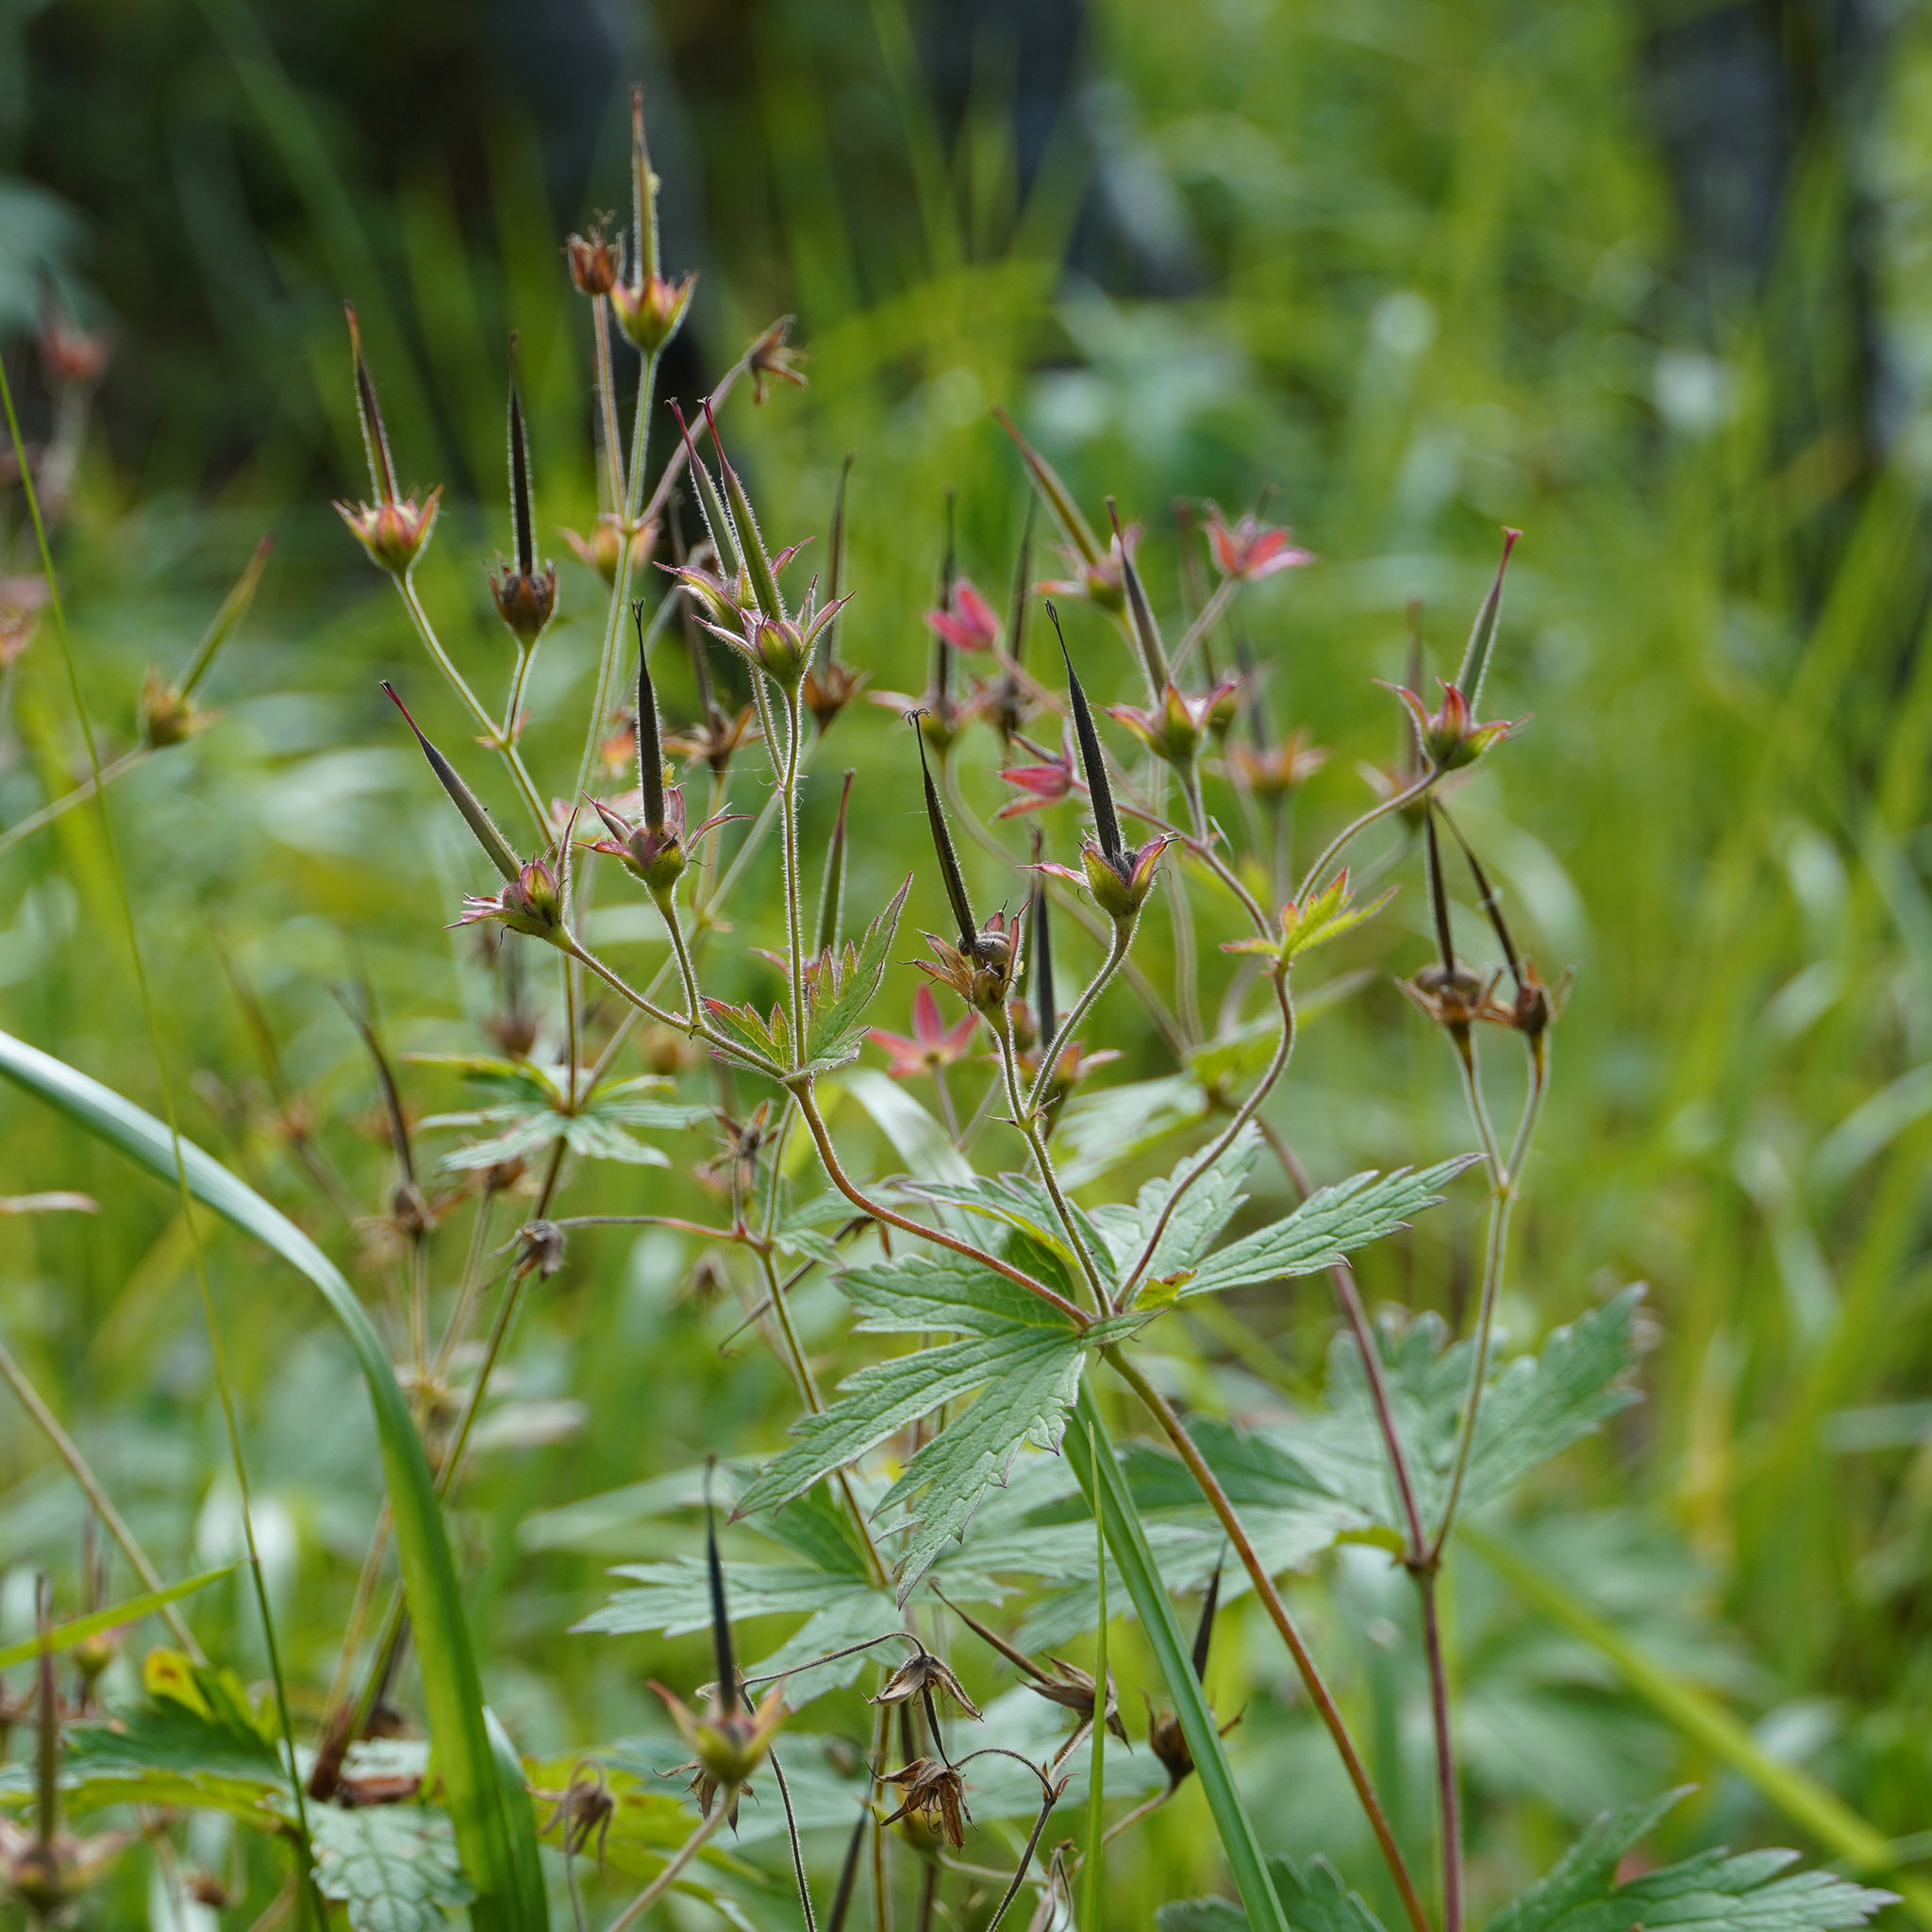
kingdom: Plantae
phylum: Tracheophyta
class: Magnoliopsida
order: Geraniales
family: Geraniaceae
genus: Geranium
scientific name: Geranium sylvaticum
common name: Wood crane's-bill
